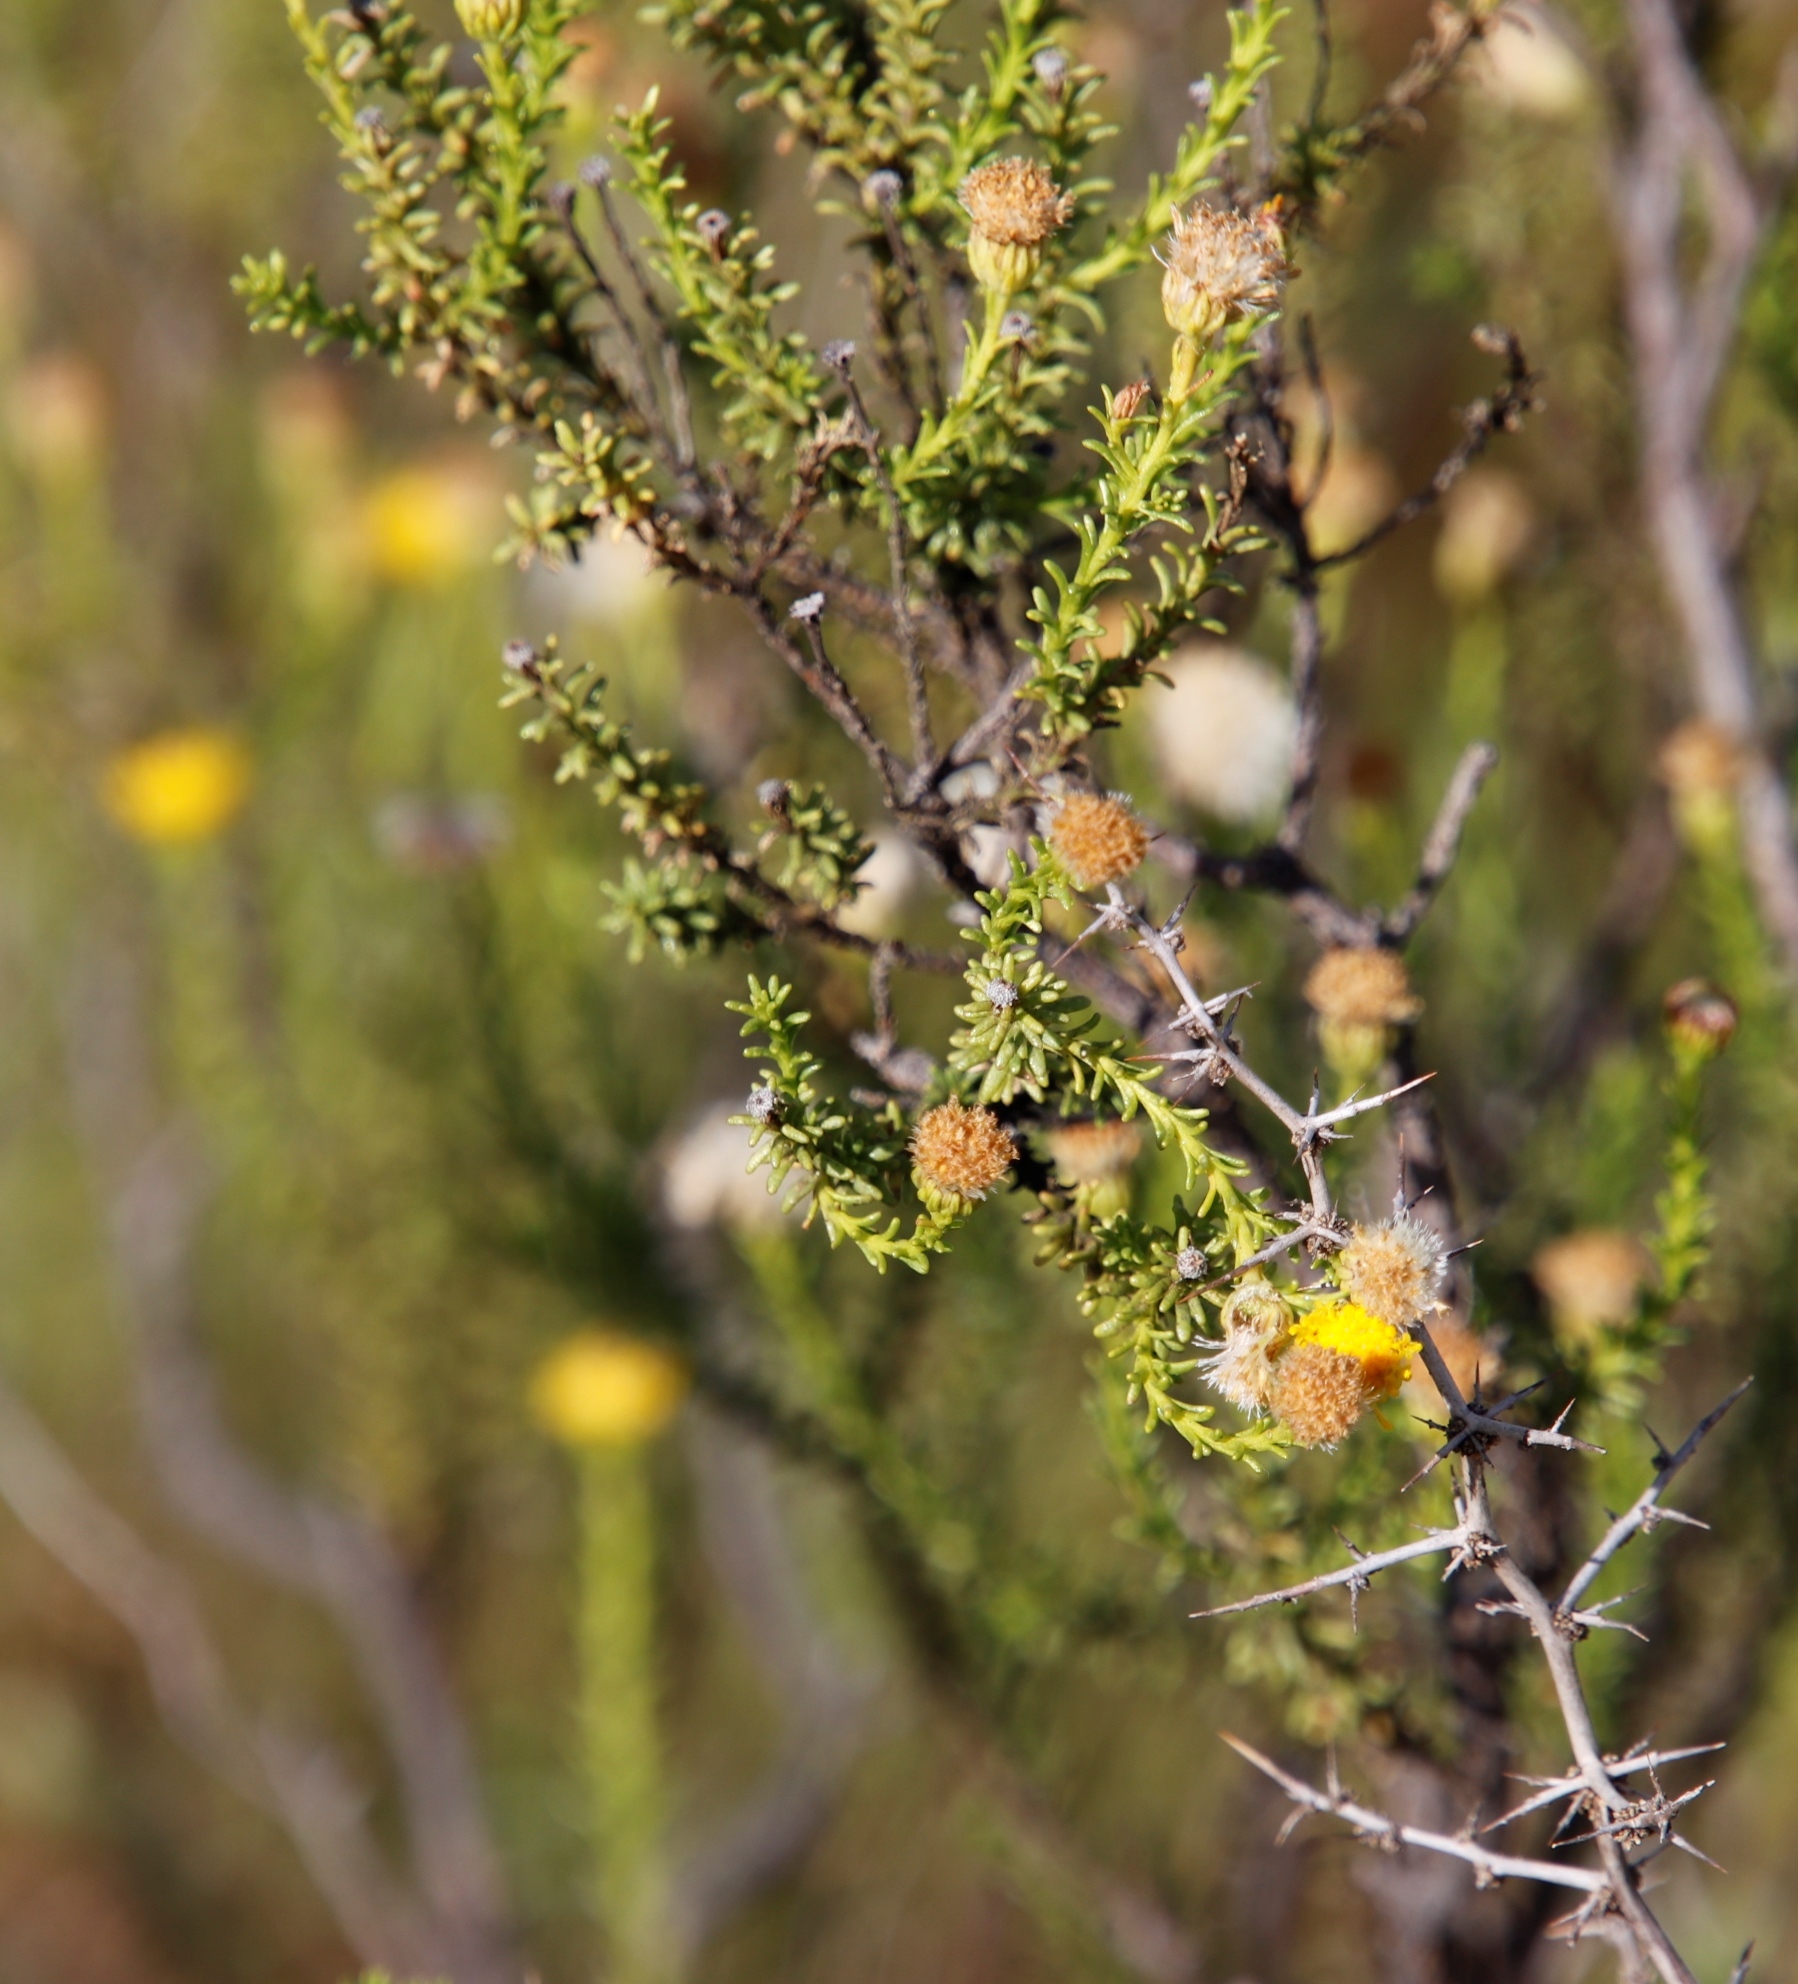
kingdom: Plantae
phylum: Tracheophyta
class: Magnoliopsida
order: Asterales
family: Asteraceae
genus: Chrysocoma
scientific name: Chrysocoma ciliata
